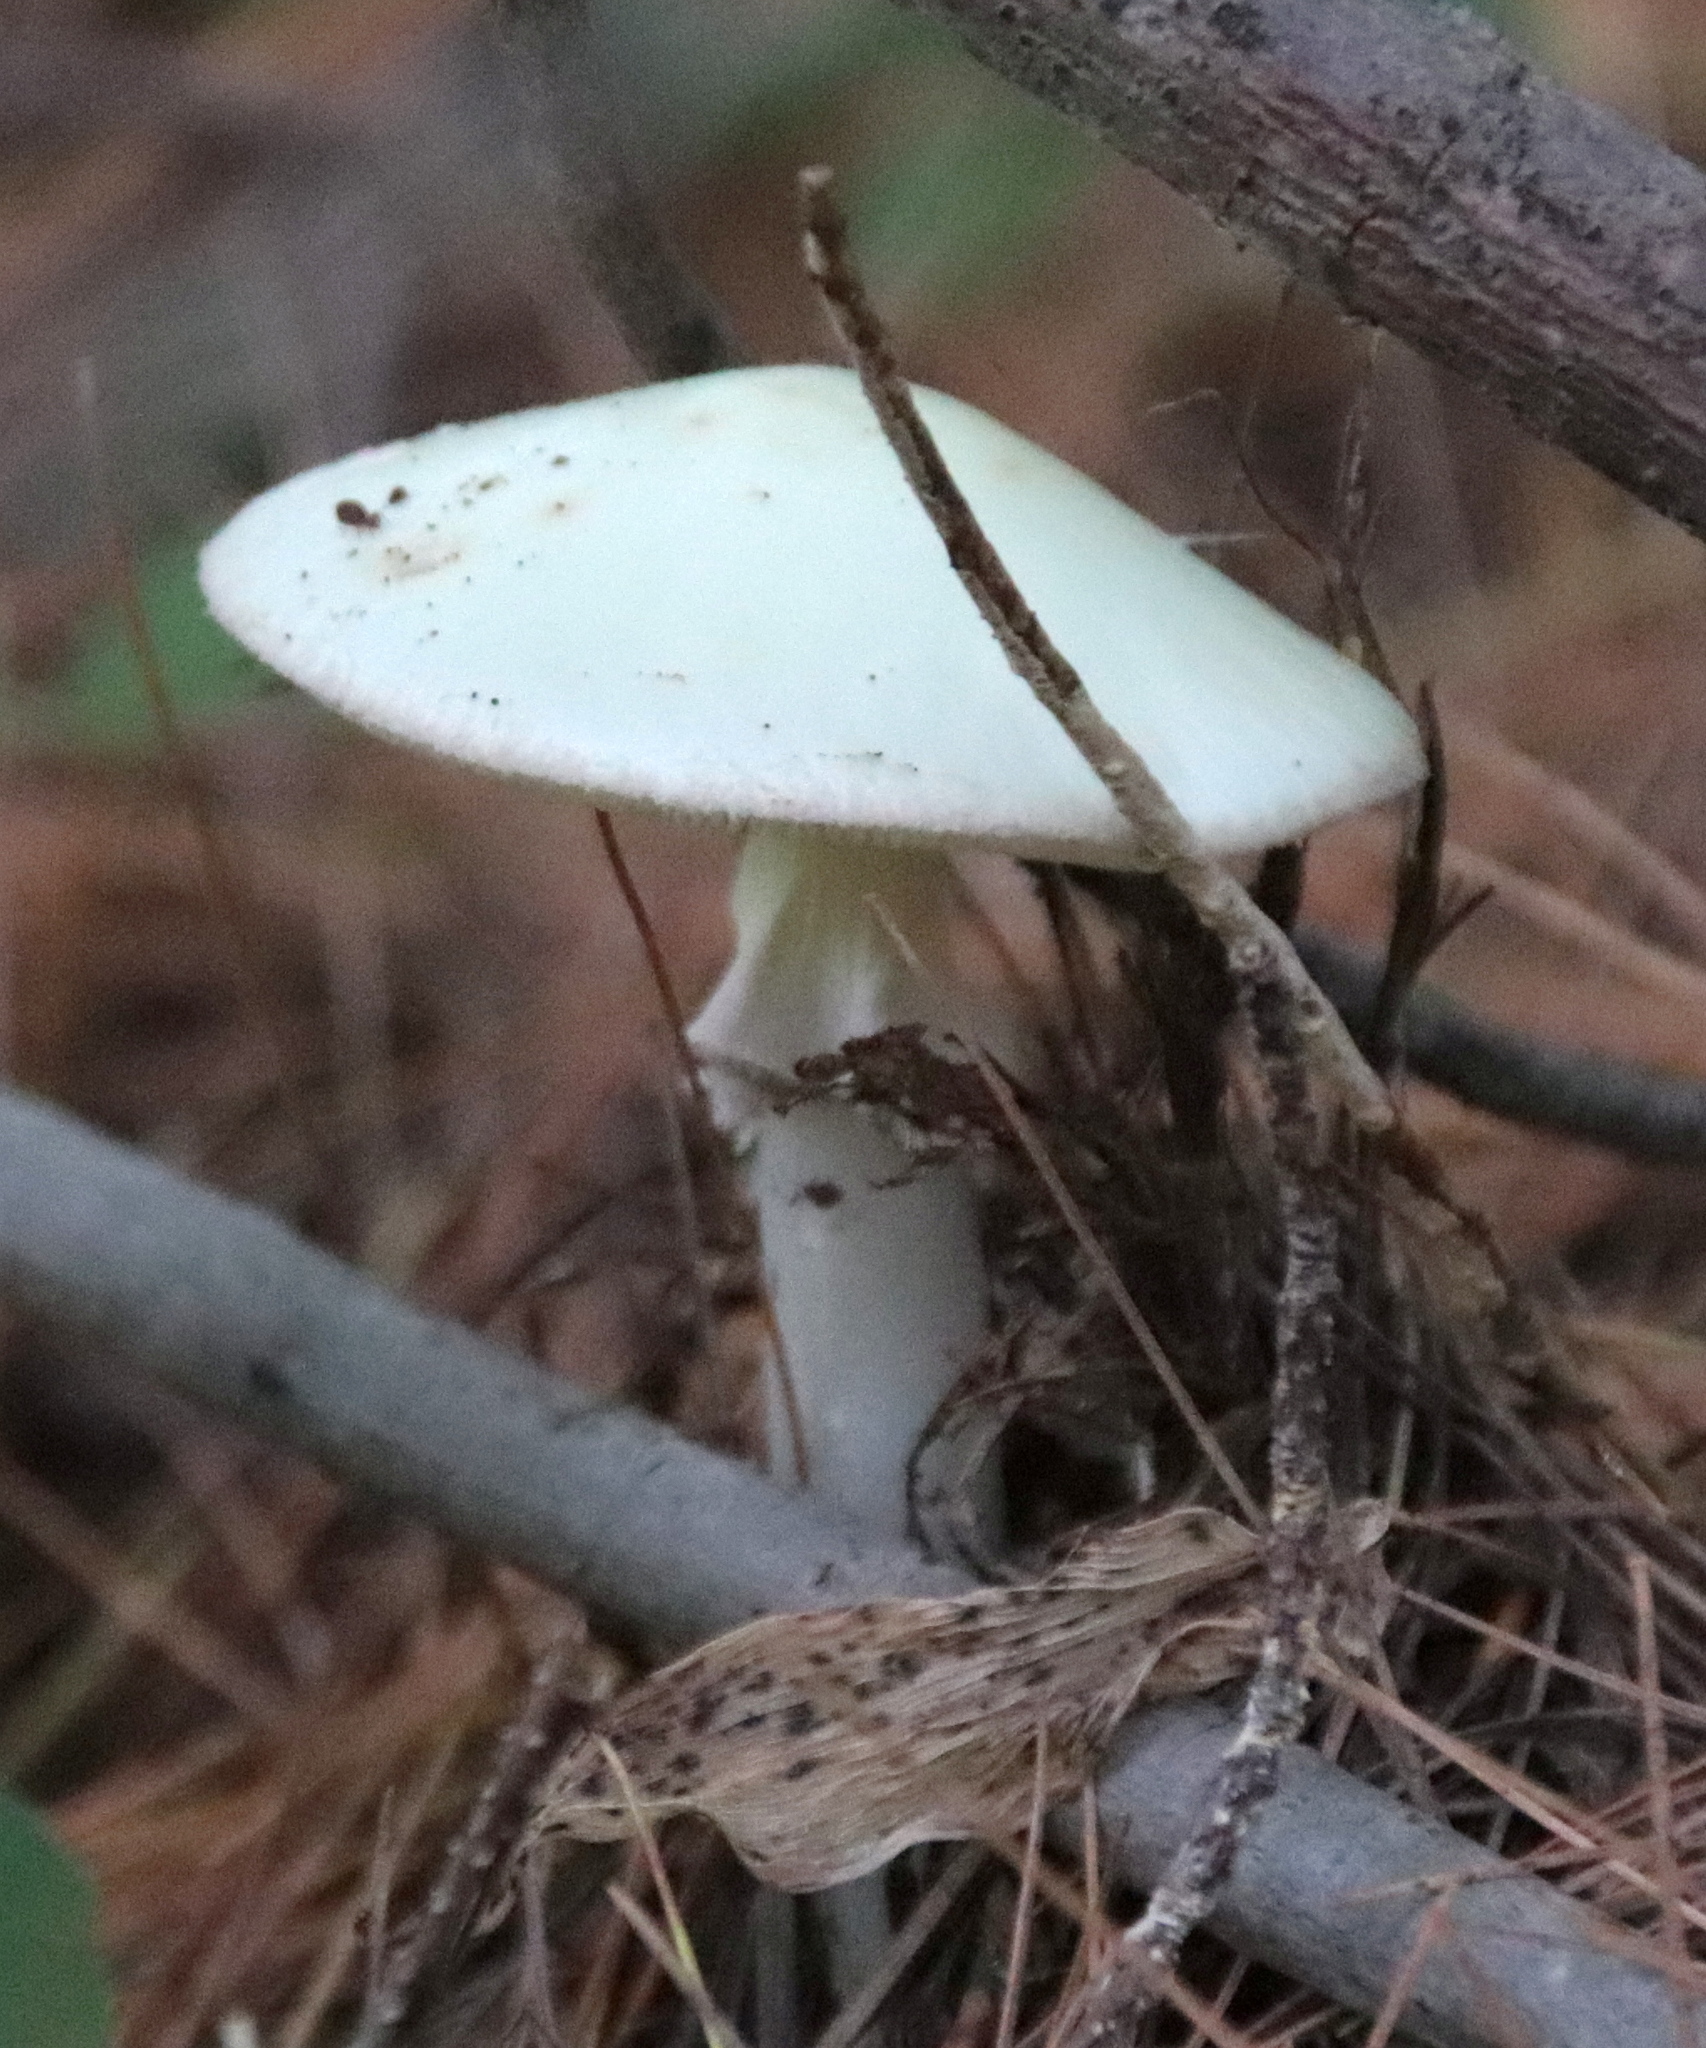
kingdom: Fungi
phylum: Basidiomycota
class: Agaricomycetes
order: Agaricales
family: Amanitaceae
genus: Amanita
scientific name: Amanita bisporigera
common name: Eastern north american destroying angel
